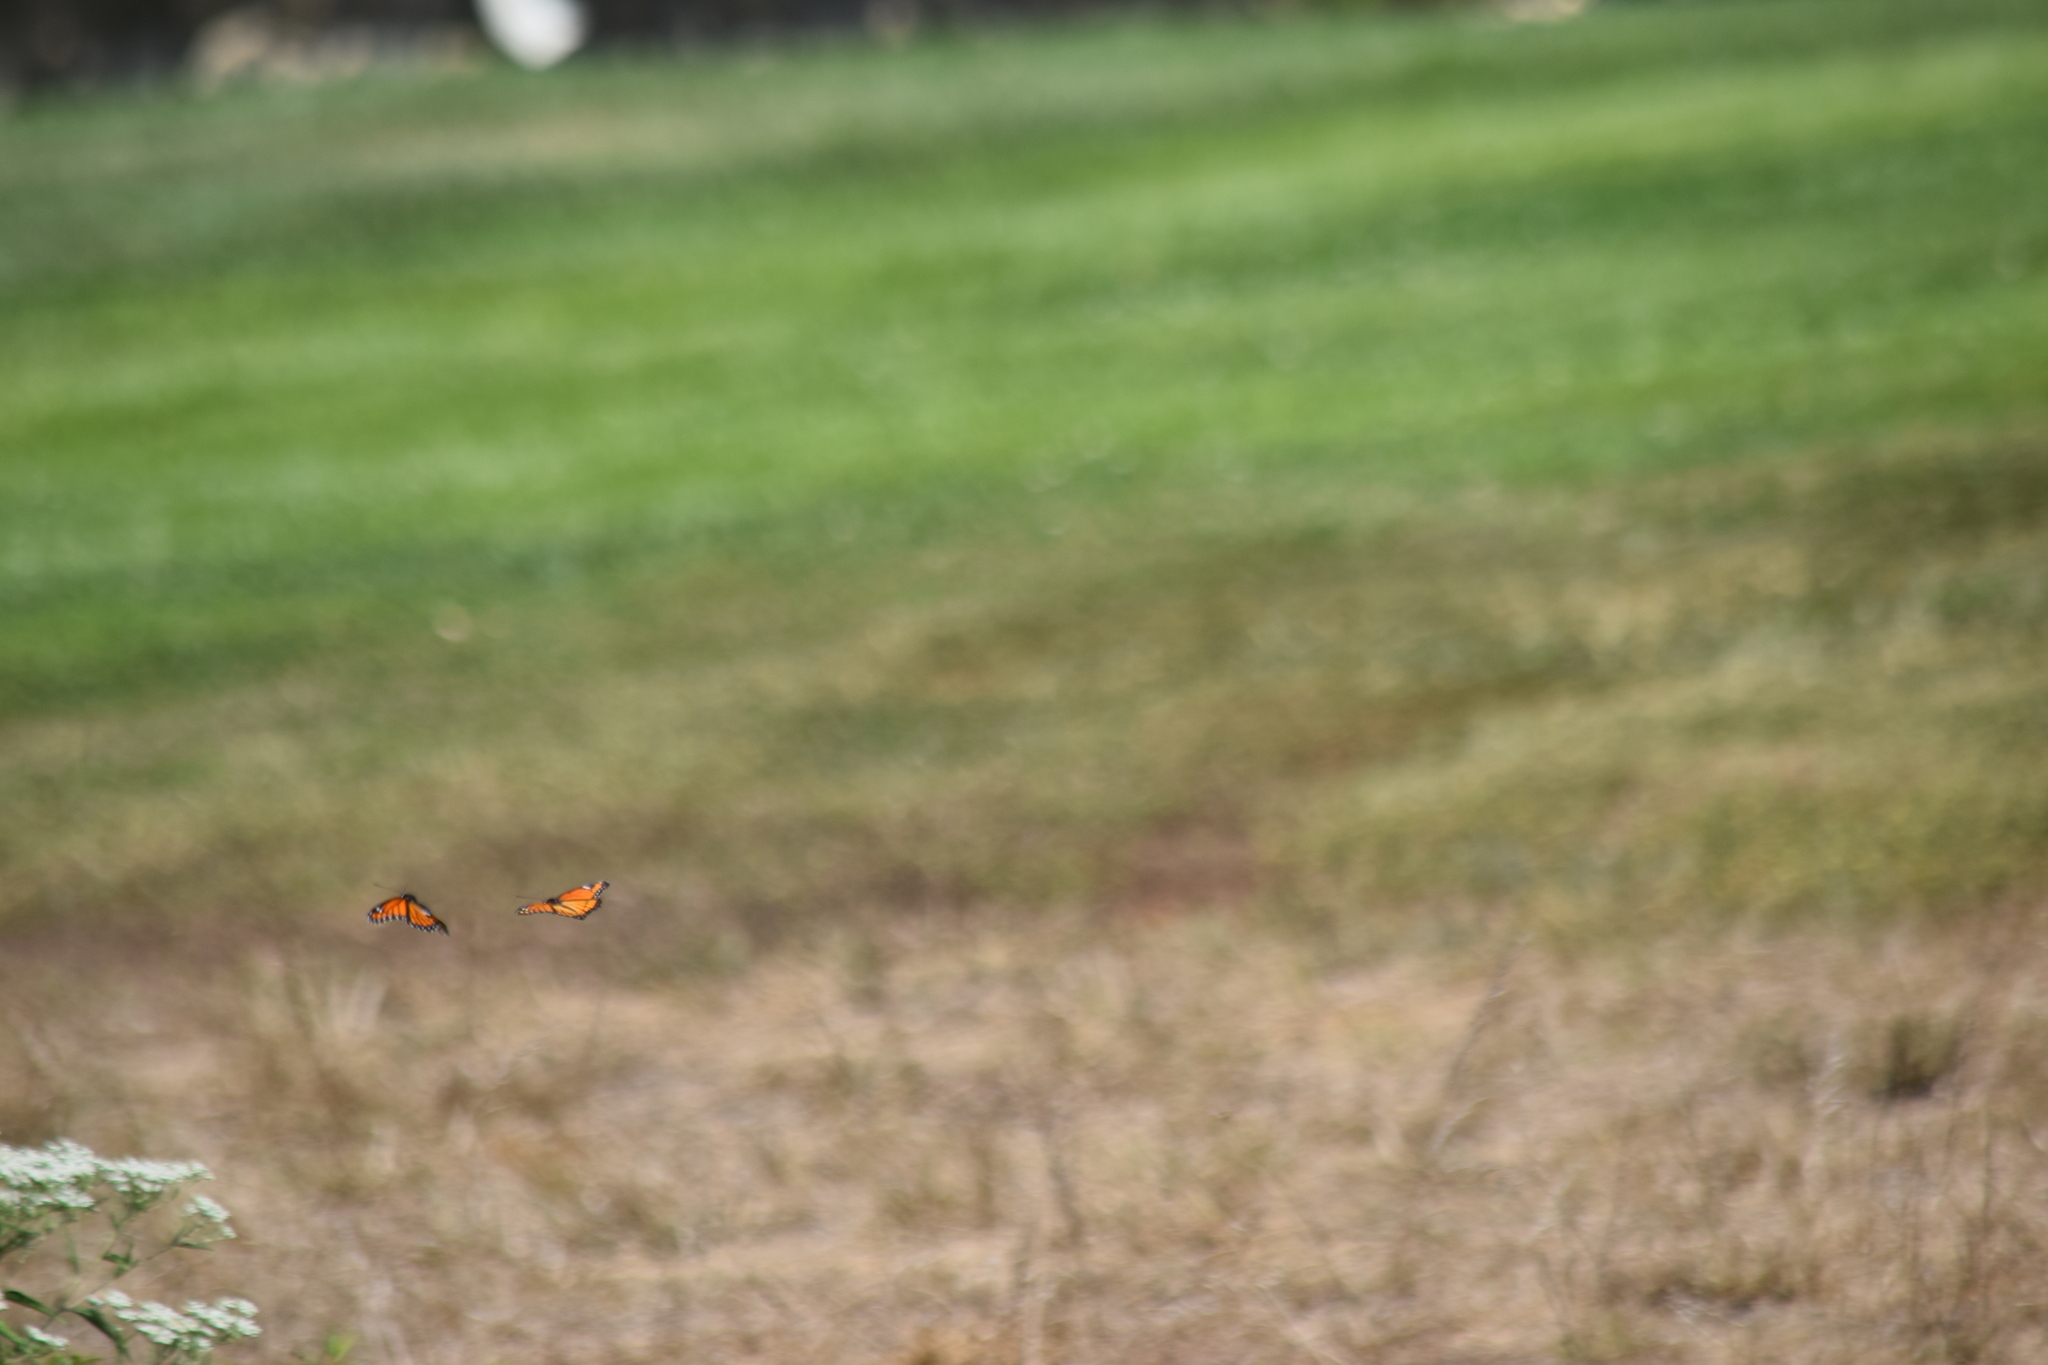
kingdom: Animalia
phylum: Arthropoda
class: Insecta
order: Lepidoptera
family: Nymphalidae
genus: Danaus
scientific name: Danaus plexippus
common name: Monarch
